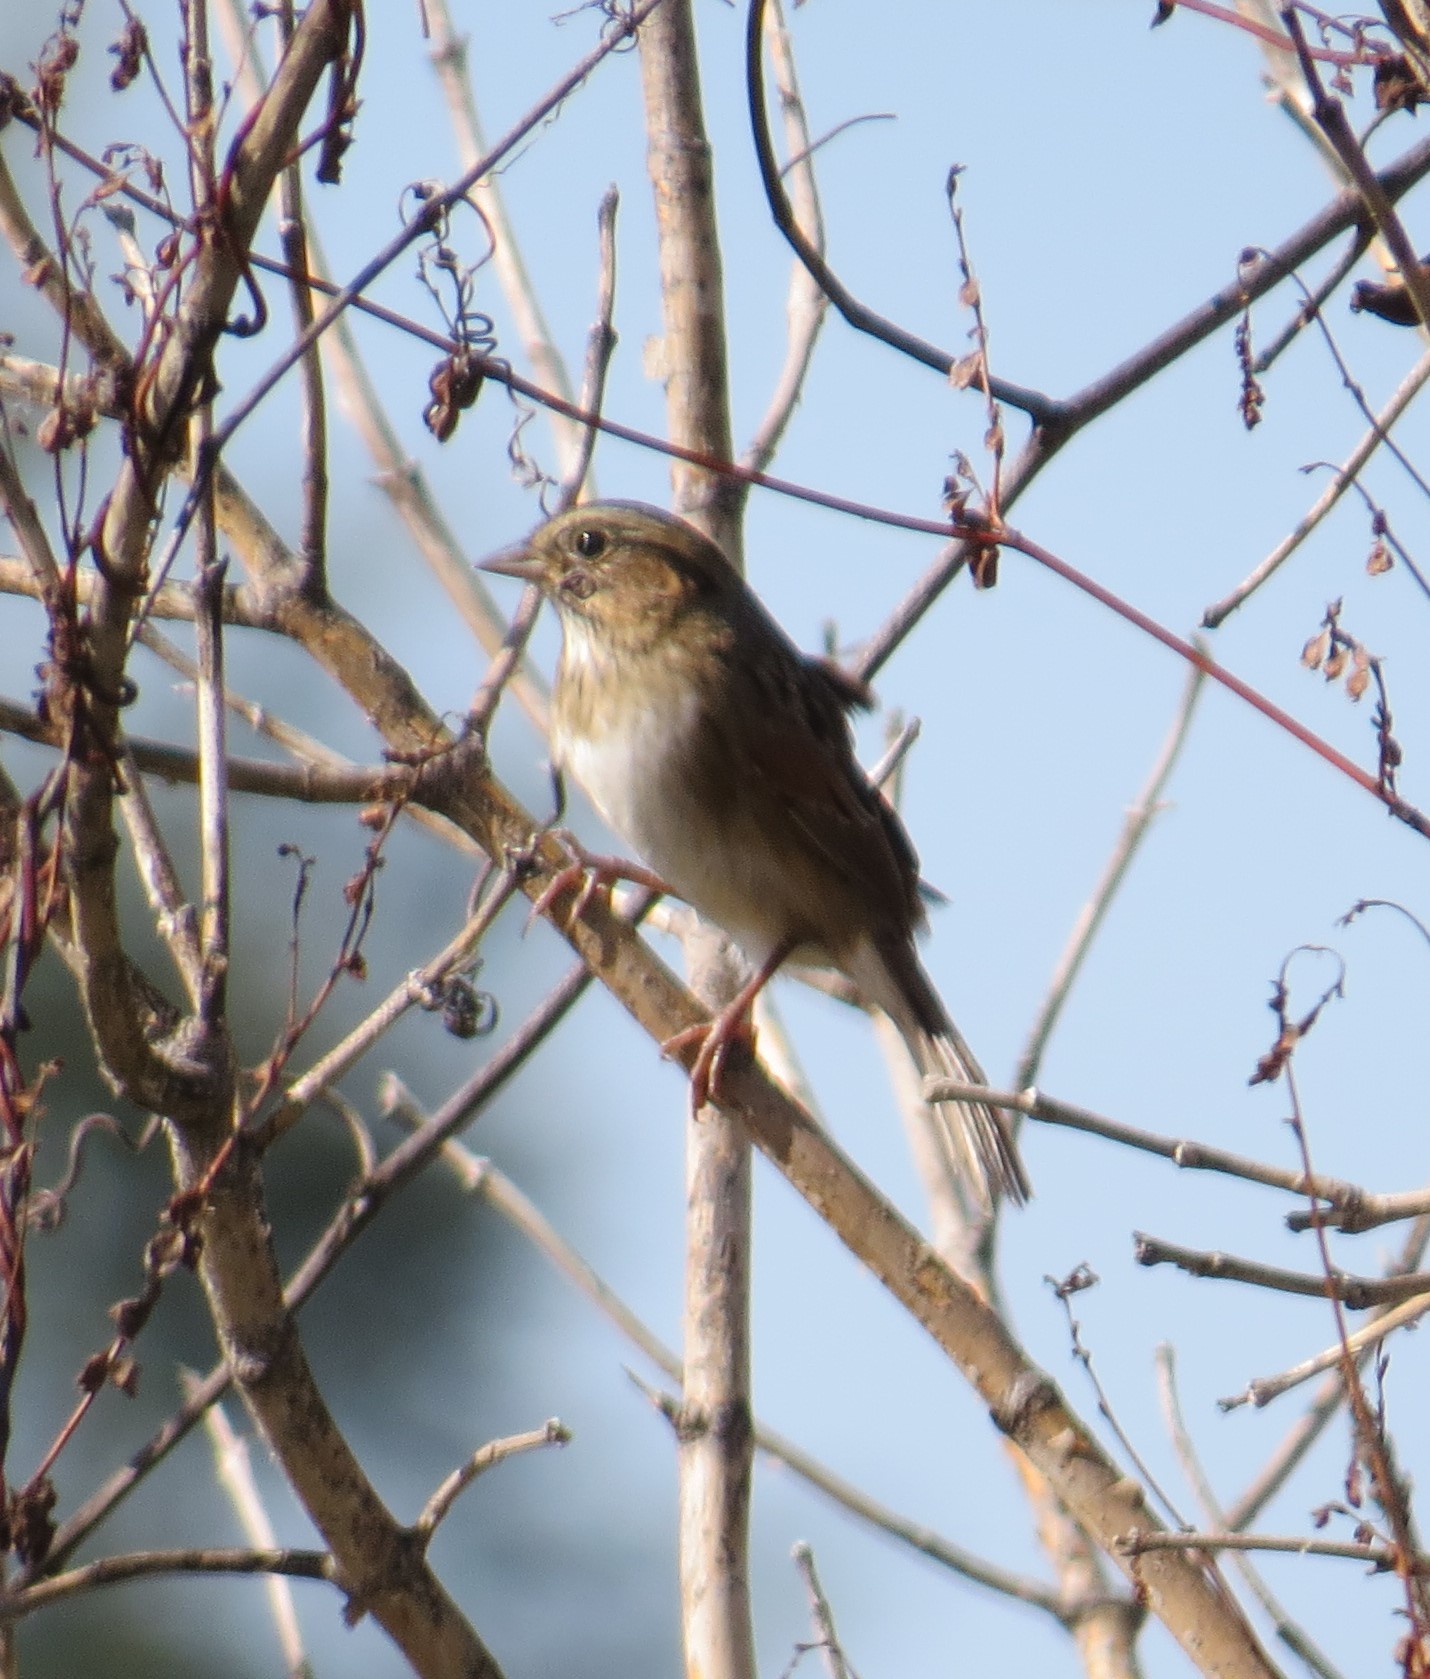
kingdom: Animalia
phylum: Chordata
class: Aves
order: Passeriformes
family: Passerellidae
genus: Melospiza
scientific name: Melospiza georgiana
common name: Swamp sparrow
